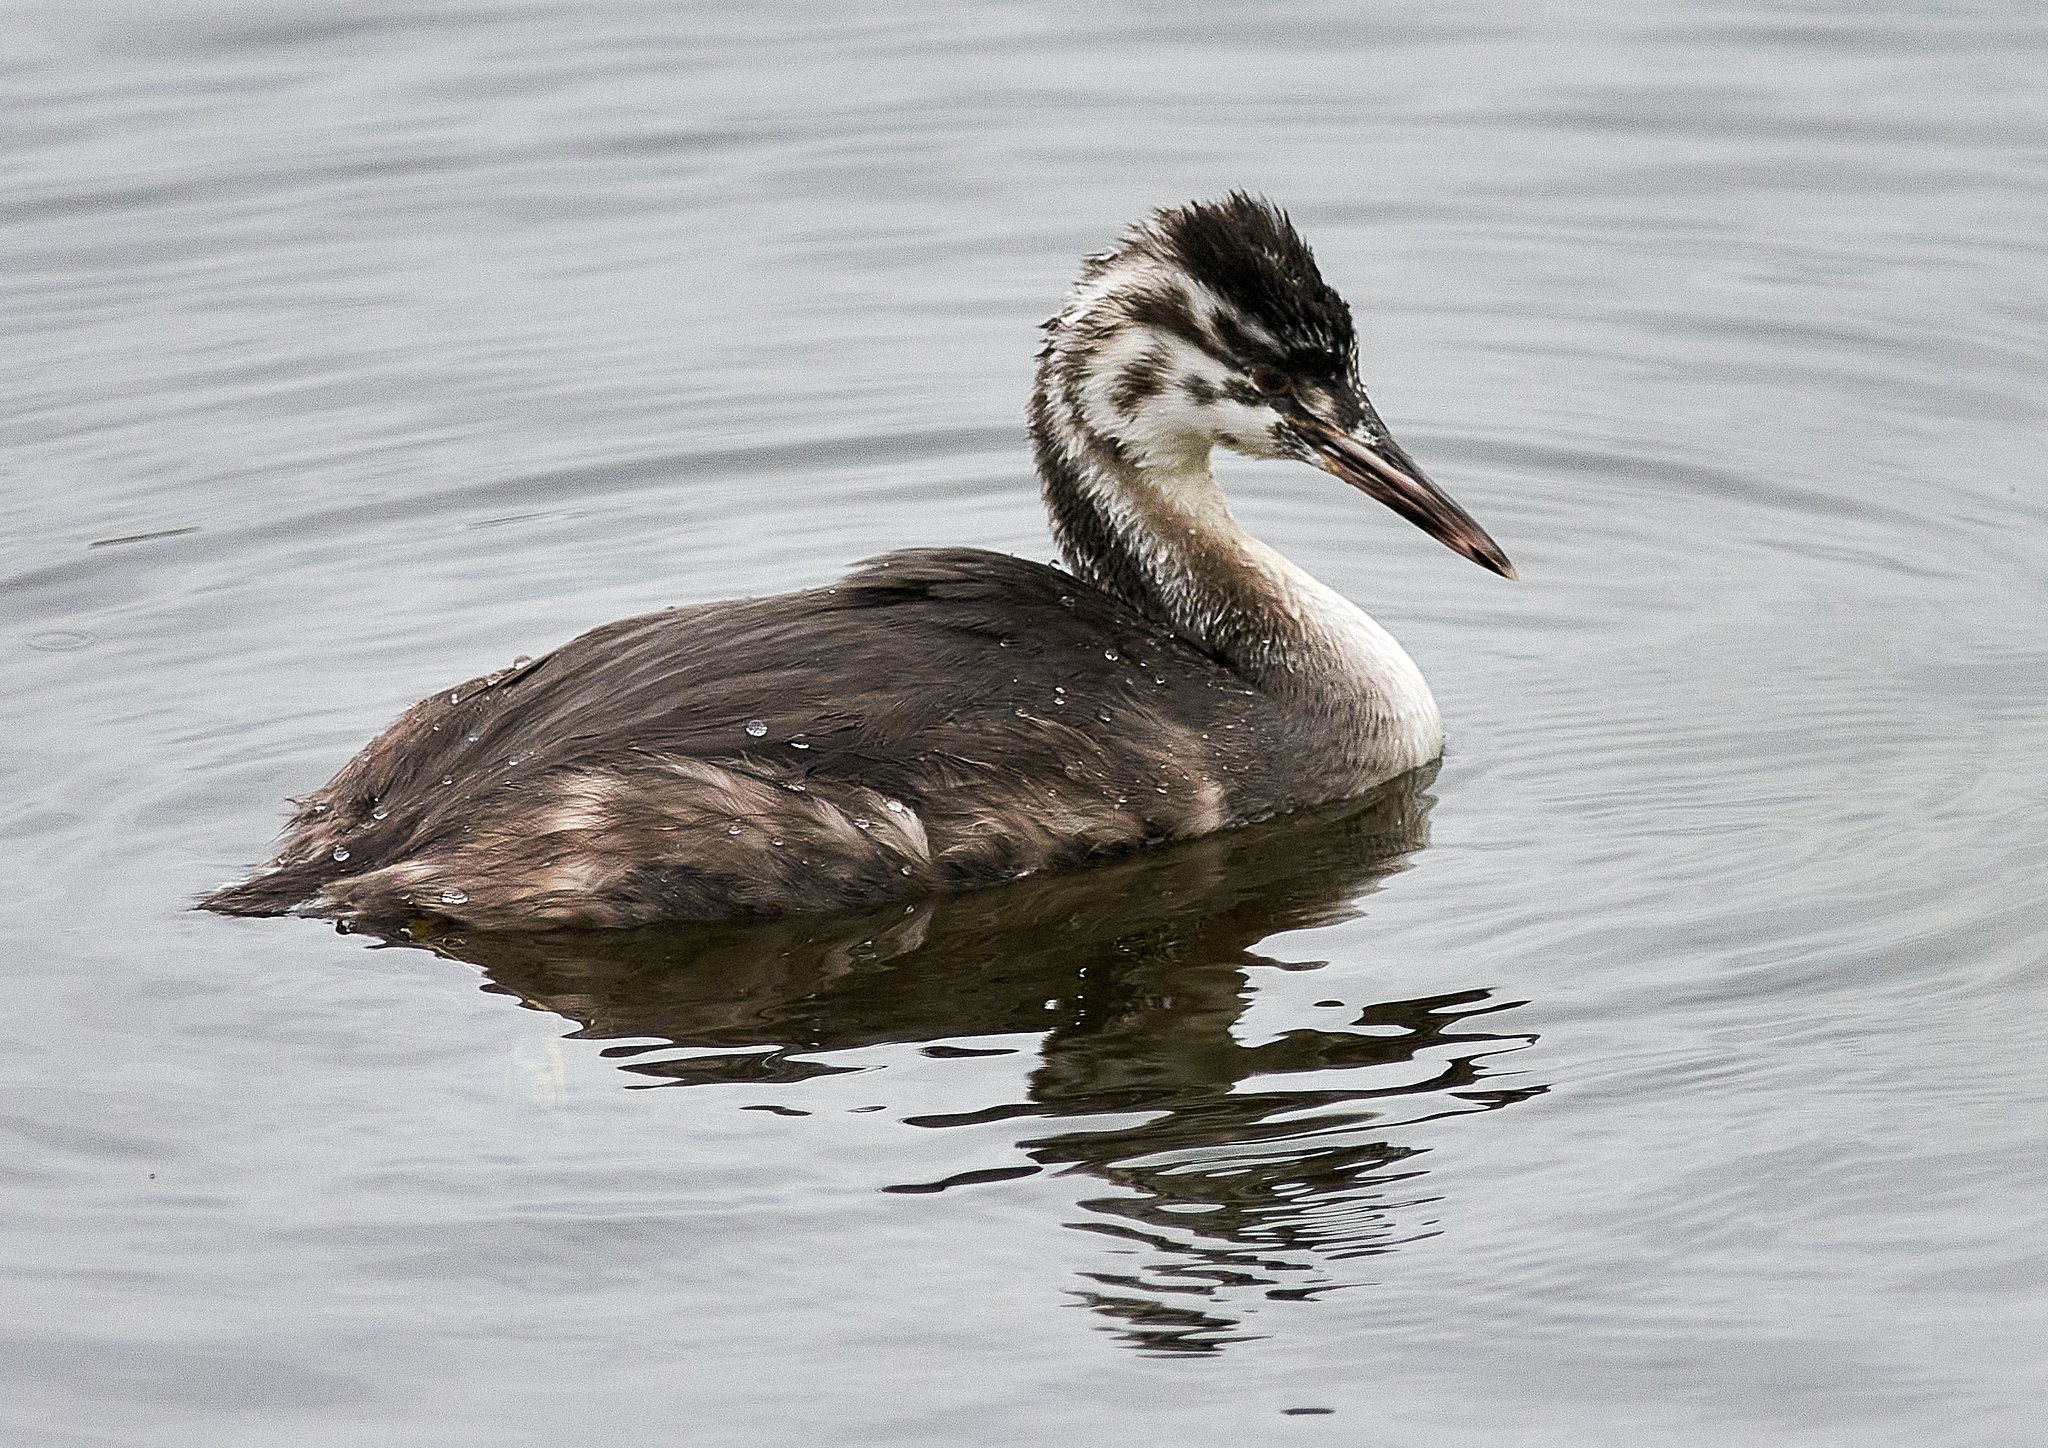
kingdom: Animalia
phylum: Chordata
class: Aves
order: Podicipediformes
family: Podicipedidae
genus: Podiceps
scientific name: Podiceps cristatus
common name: Great crested grebe
